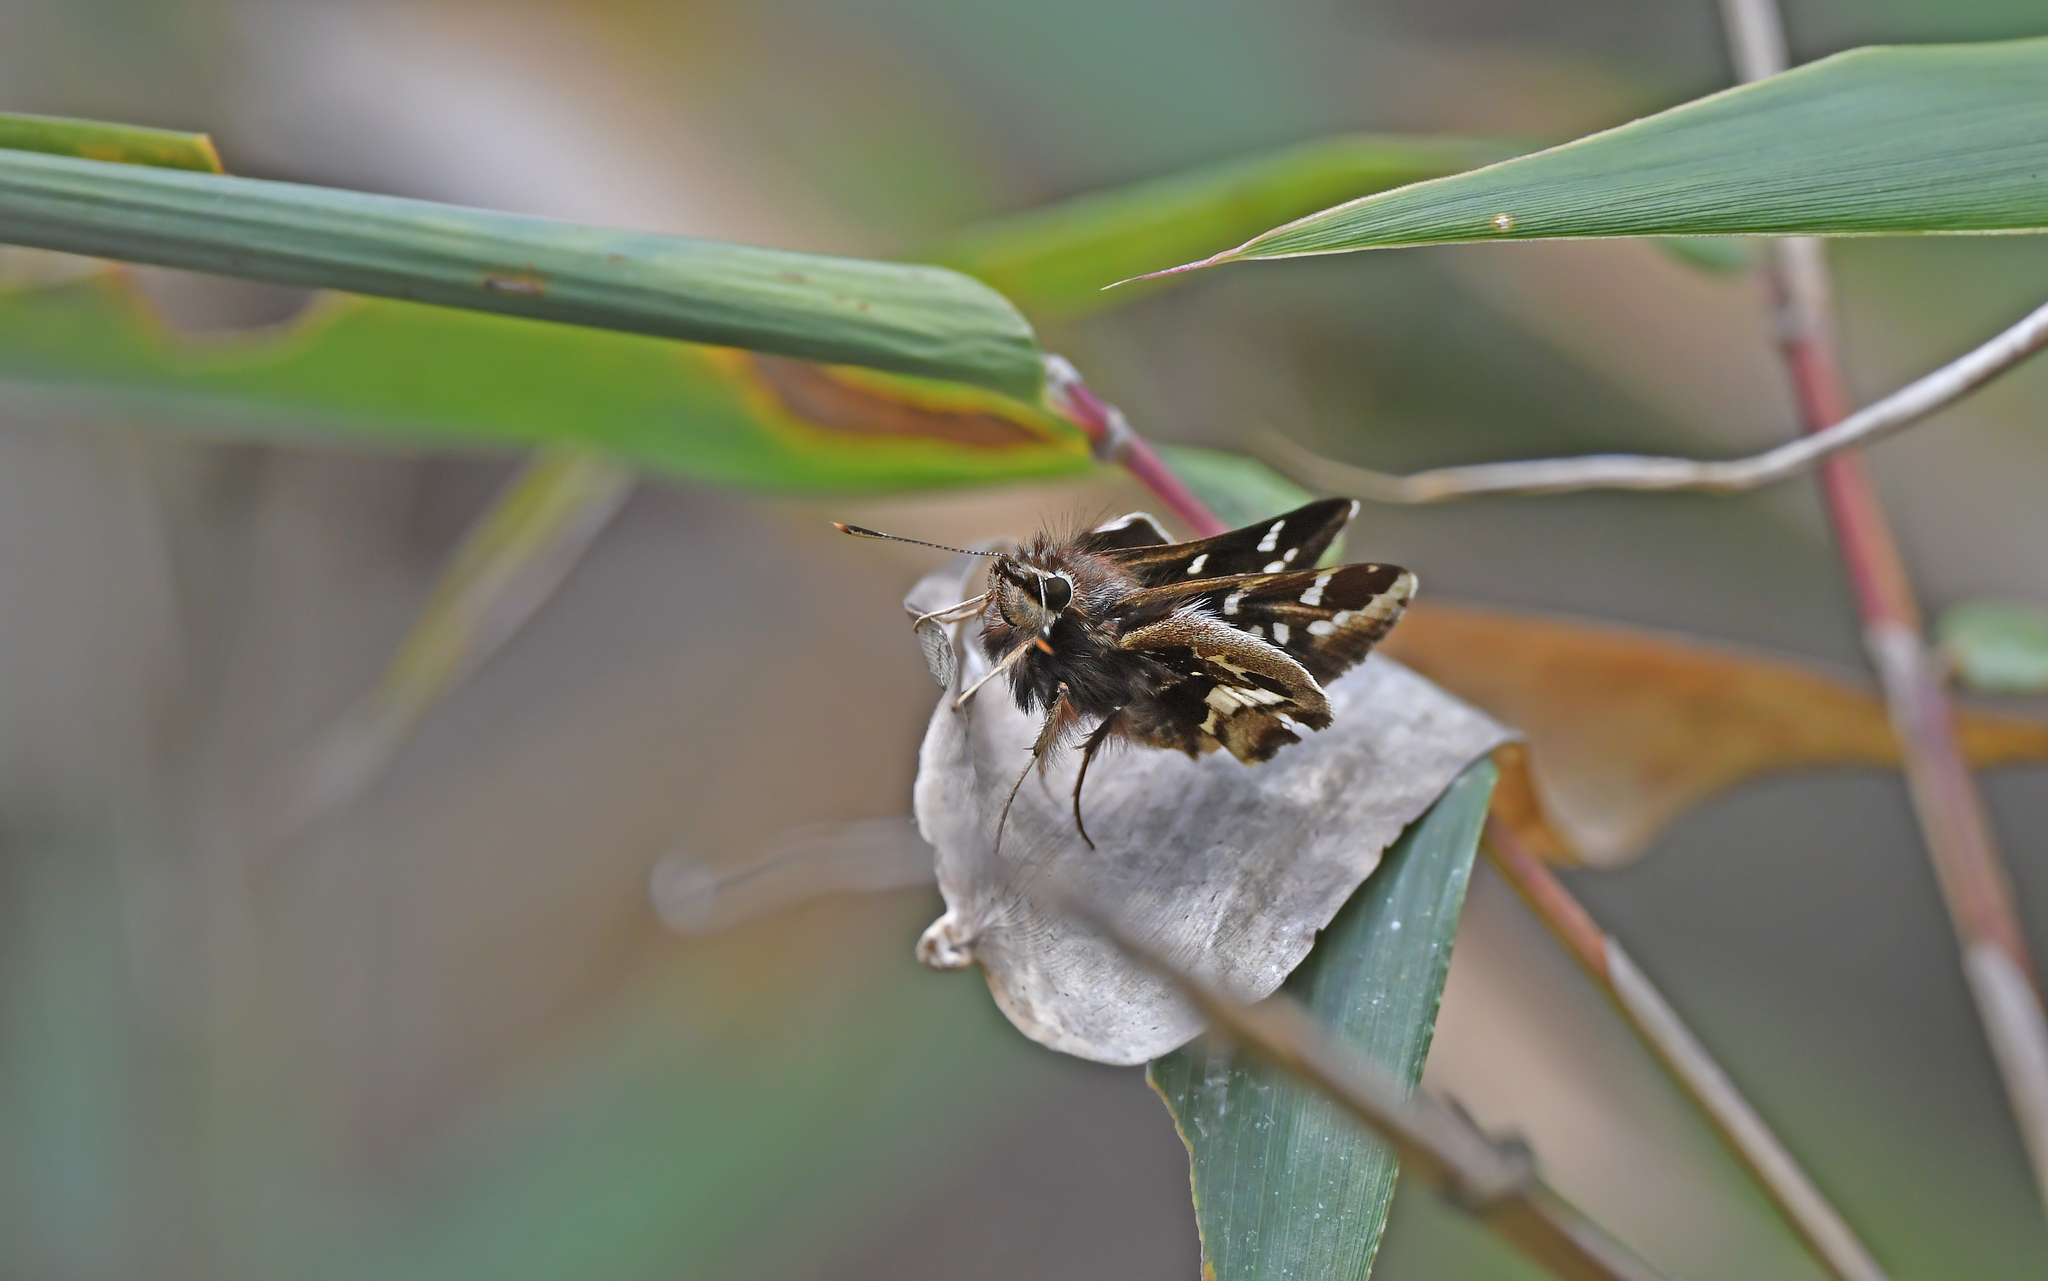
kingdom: Animalia
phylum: Arthropoda
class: Insecta
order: Lepidoptera
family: Hesperiidae
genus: Thespieus
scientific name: Thespieus othna
